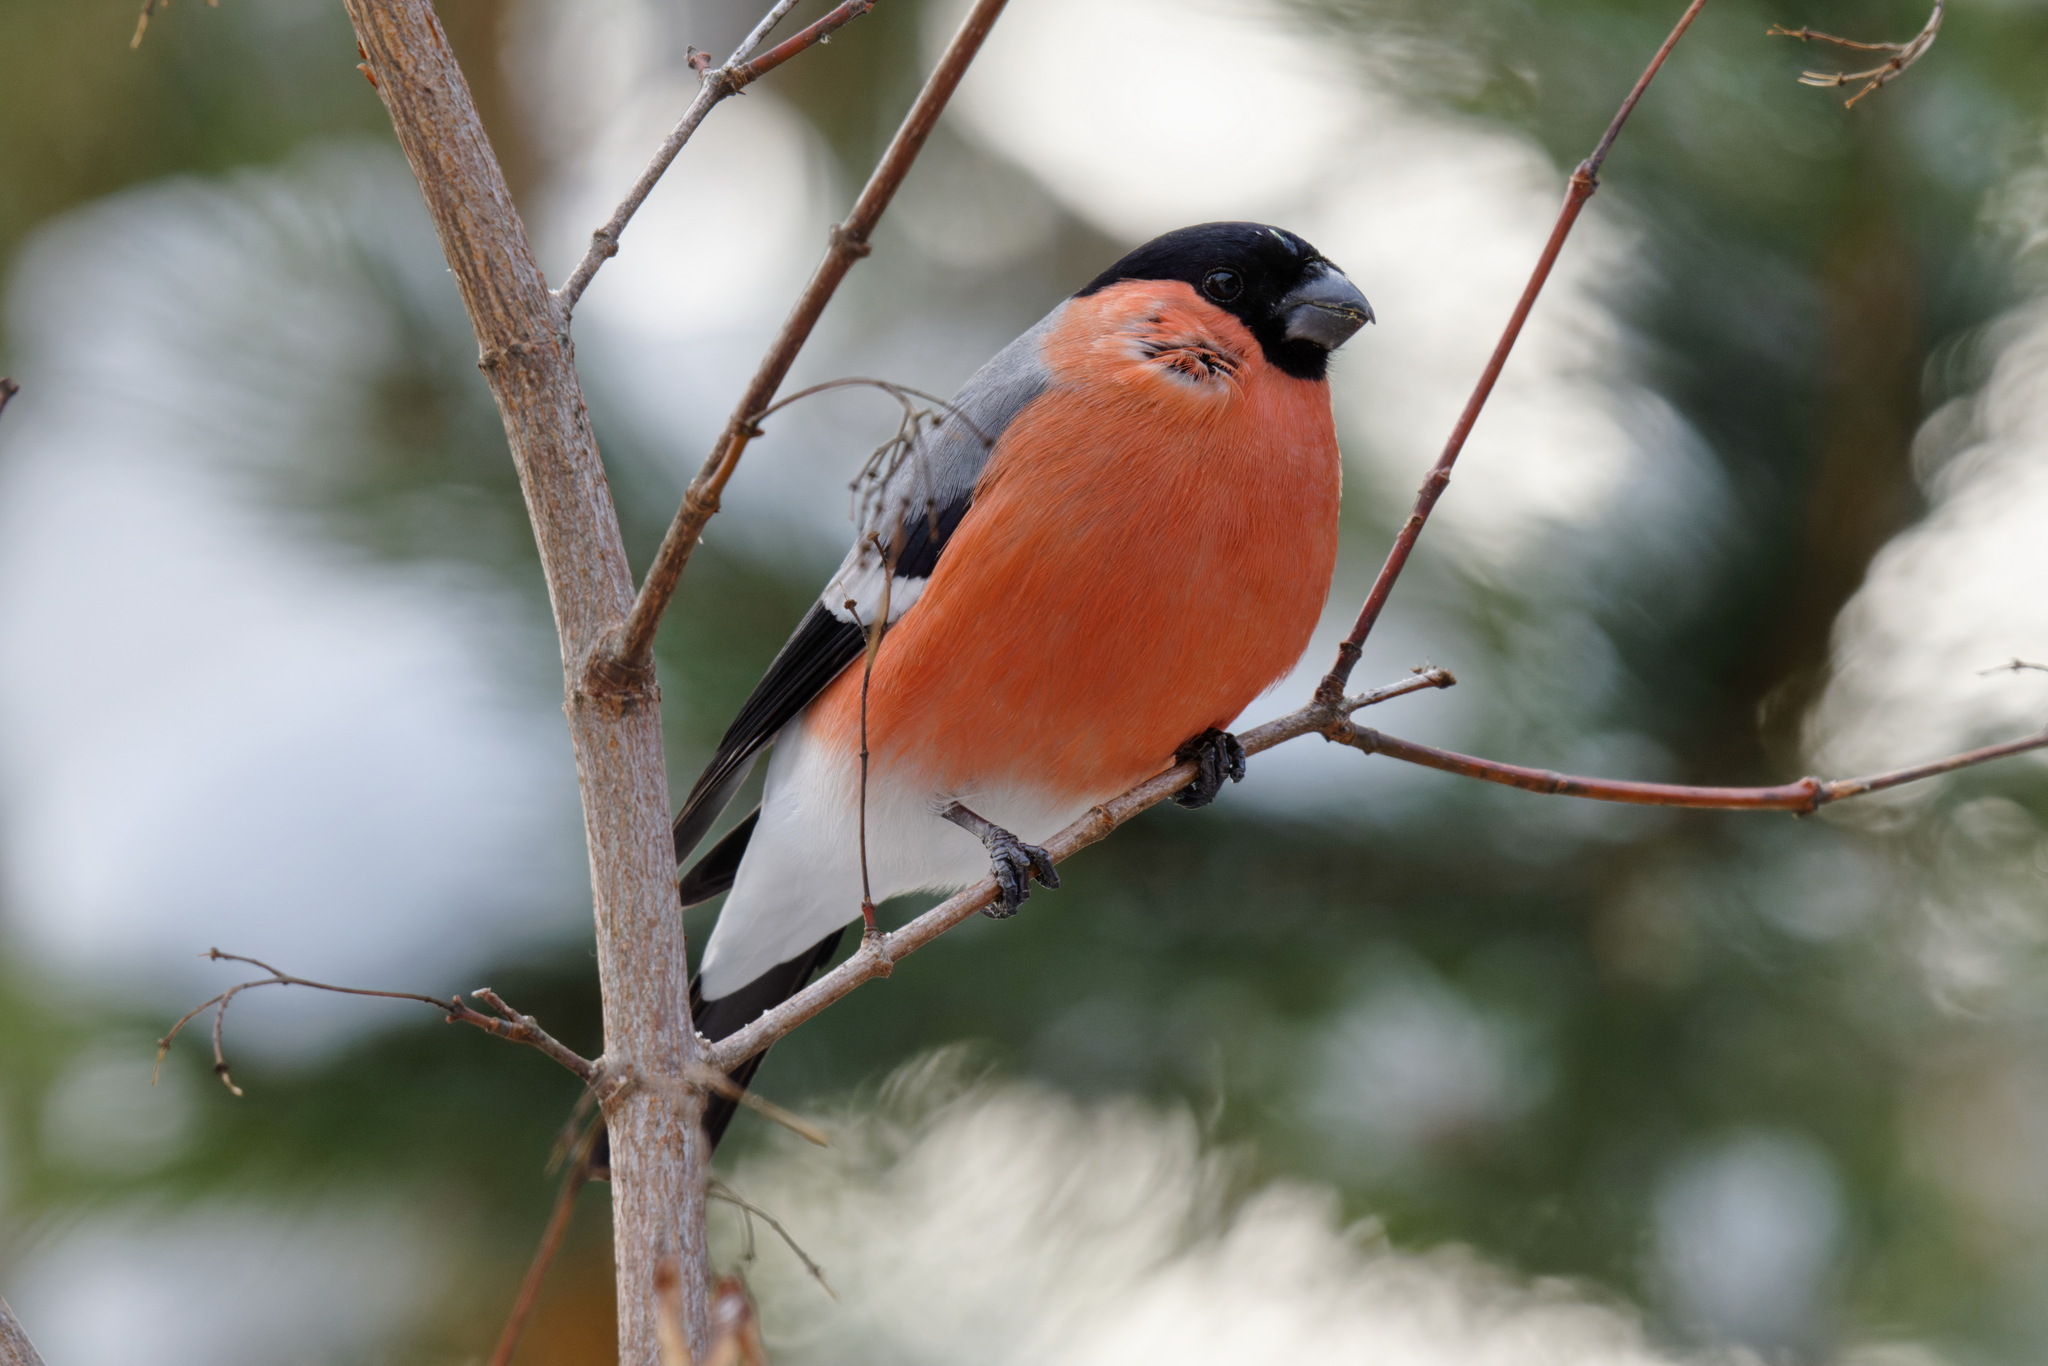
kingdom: Animalia
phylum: Chordata
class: Aves
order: Passeriformes
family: Fringillidae
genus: Pyrrhula
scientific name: Pyrrhula pyrrhula
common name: Eurasian bullfinch
